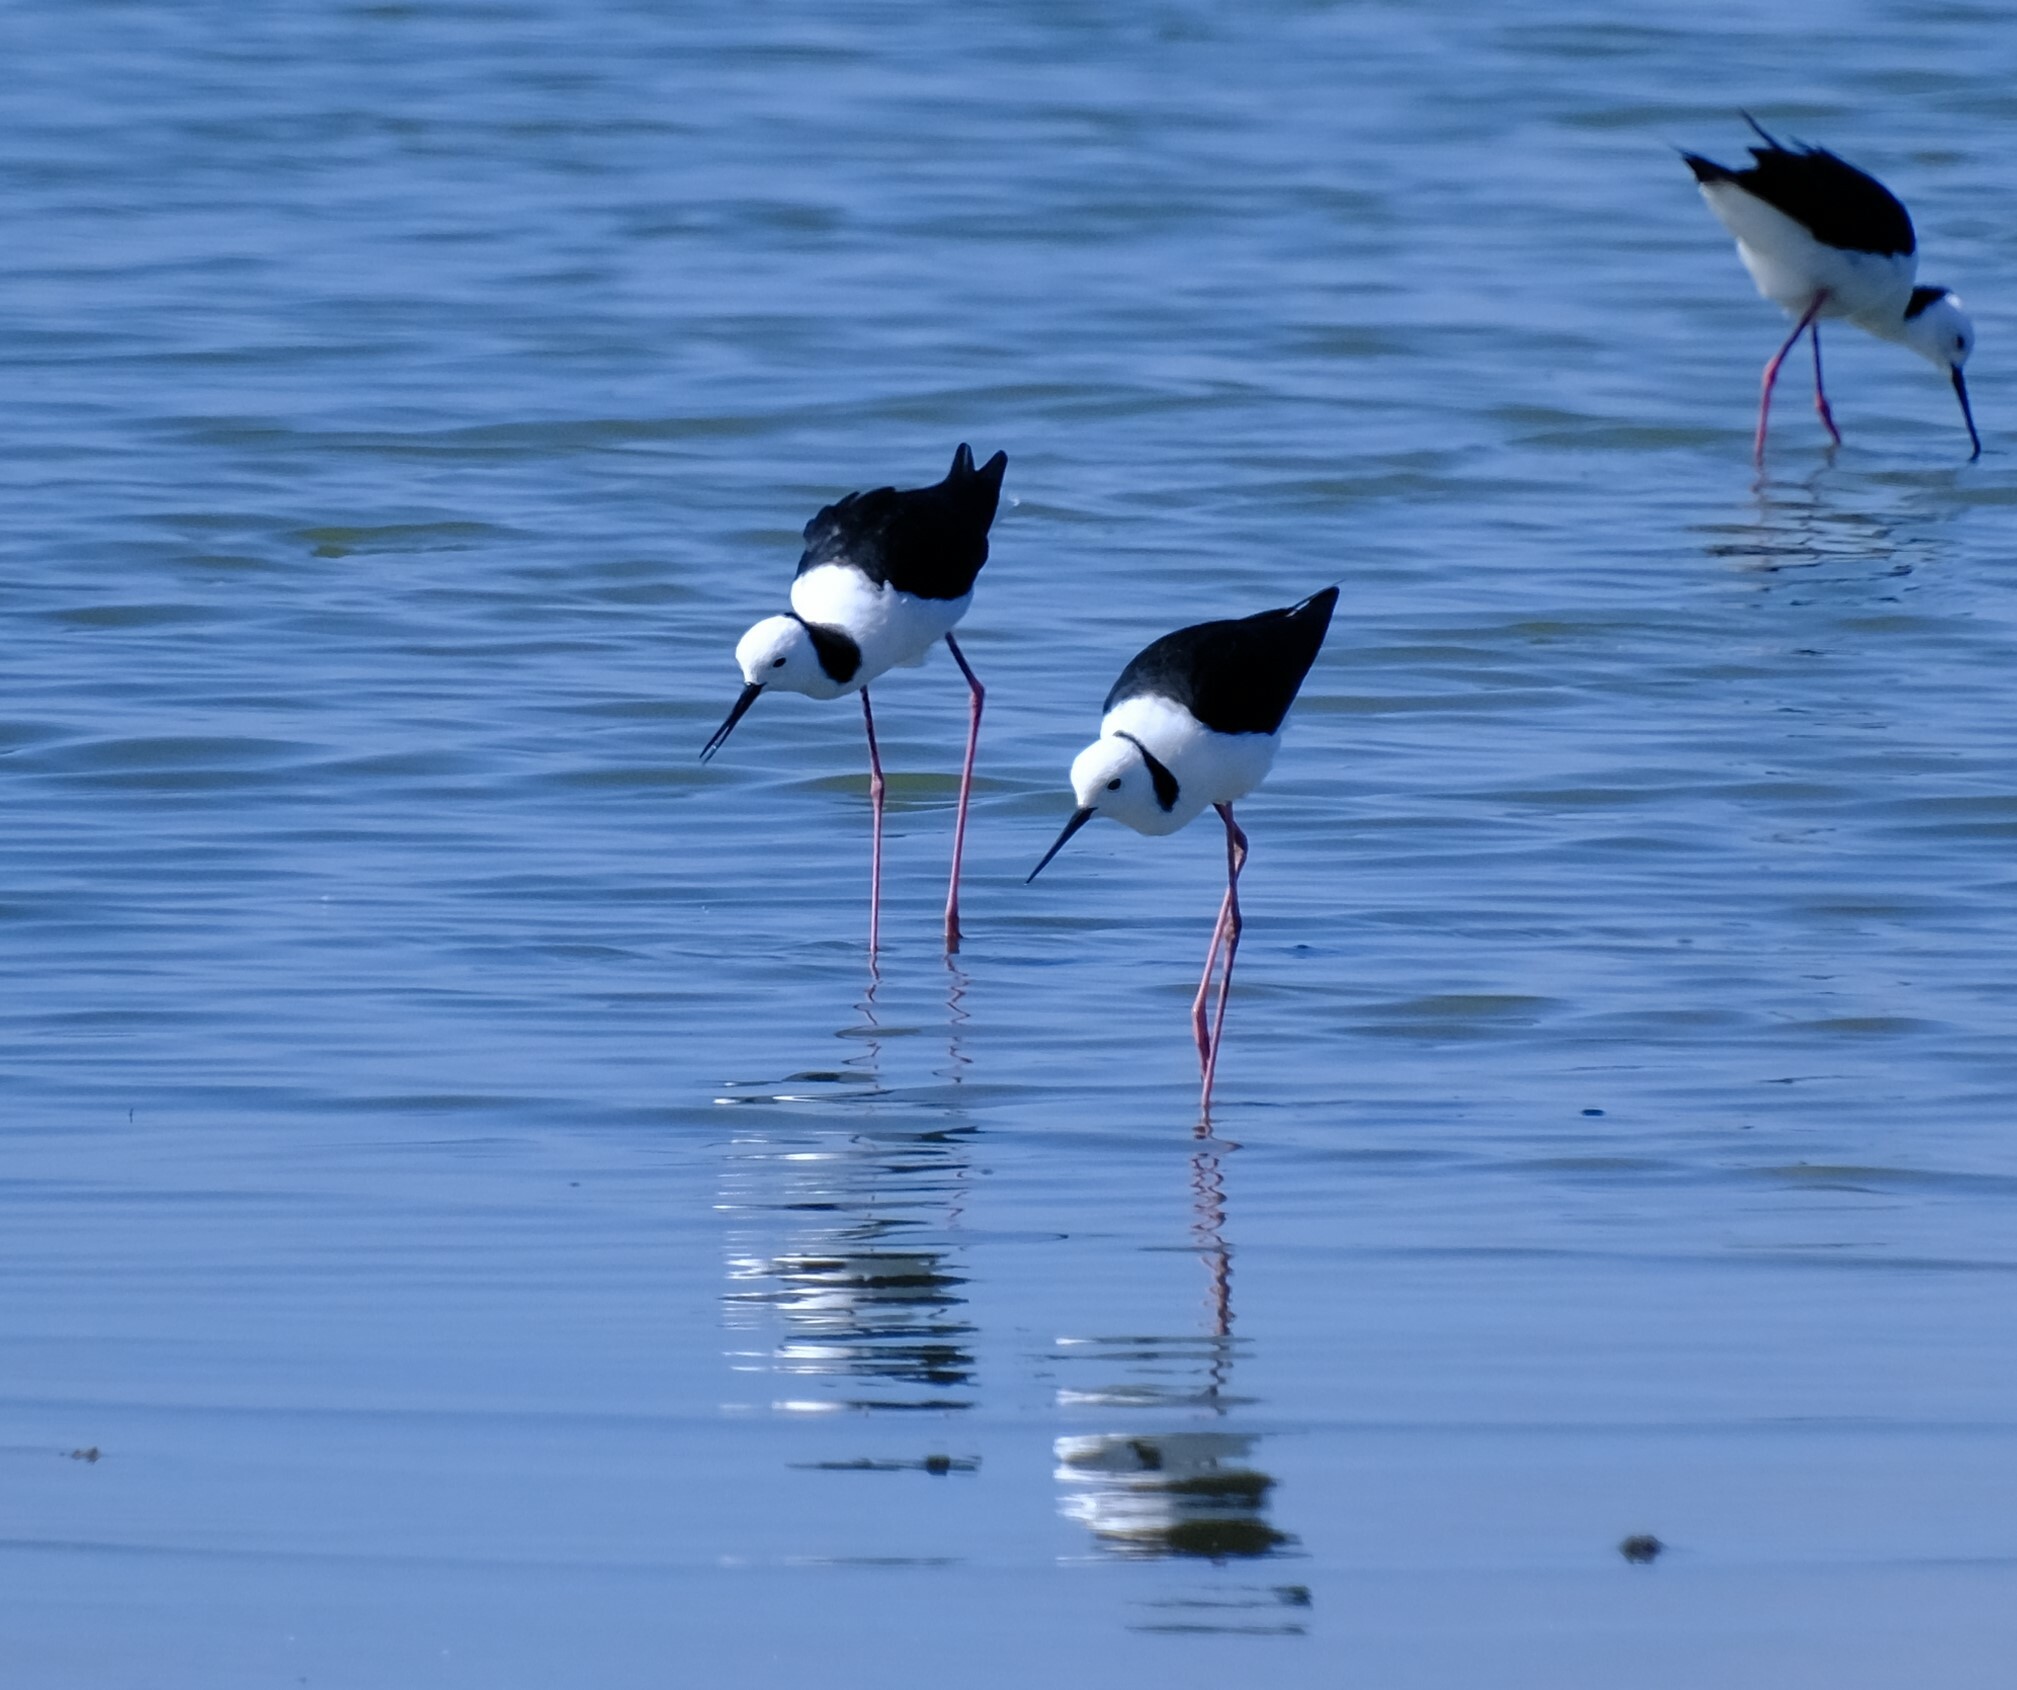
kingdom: Animalia
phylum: Chordata
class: Aves
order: Charadriiformes
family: Recurvirostridae
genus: Himantopus
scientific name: Himantopus leucocephalus
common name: White-headed stilt
